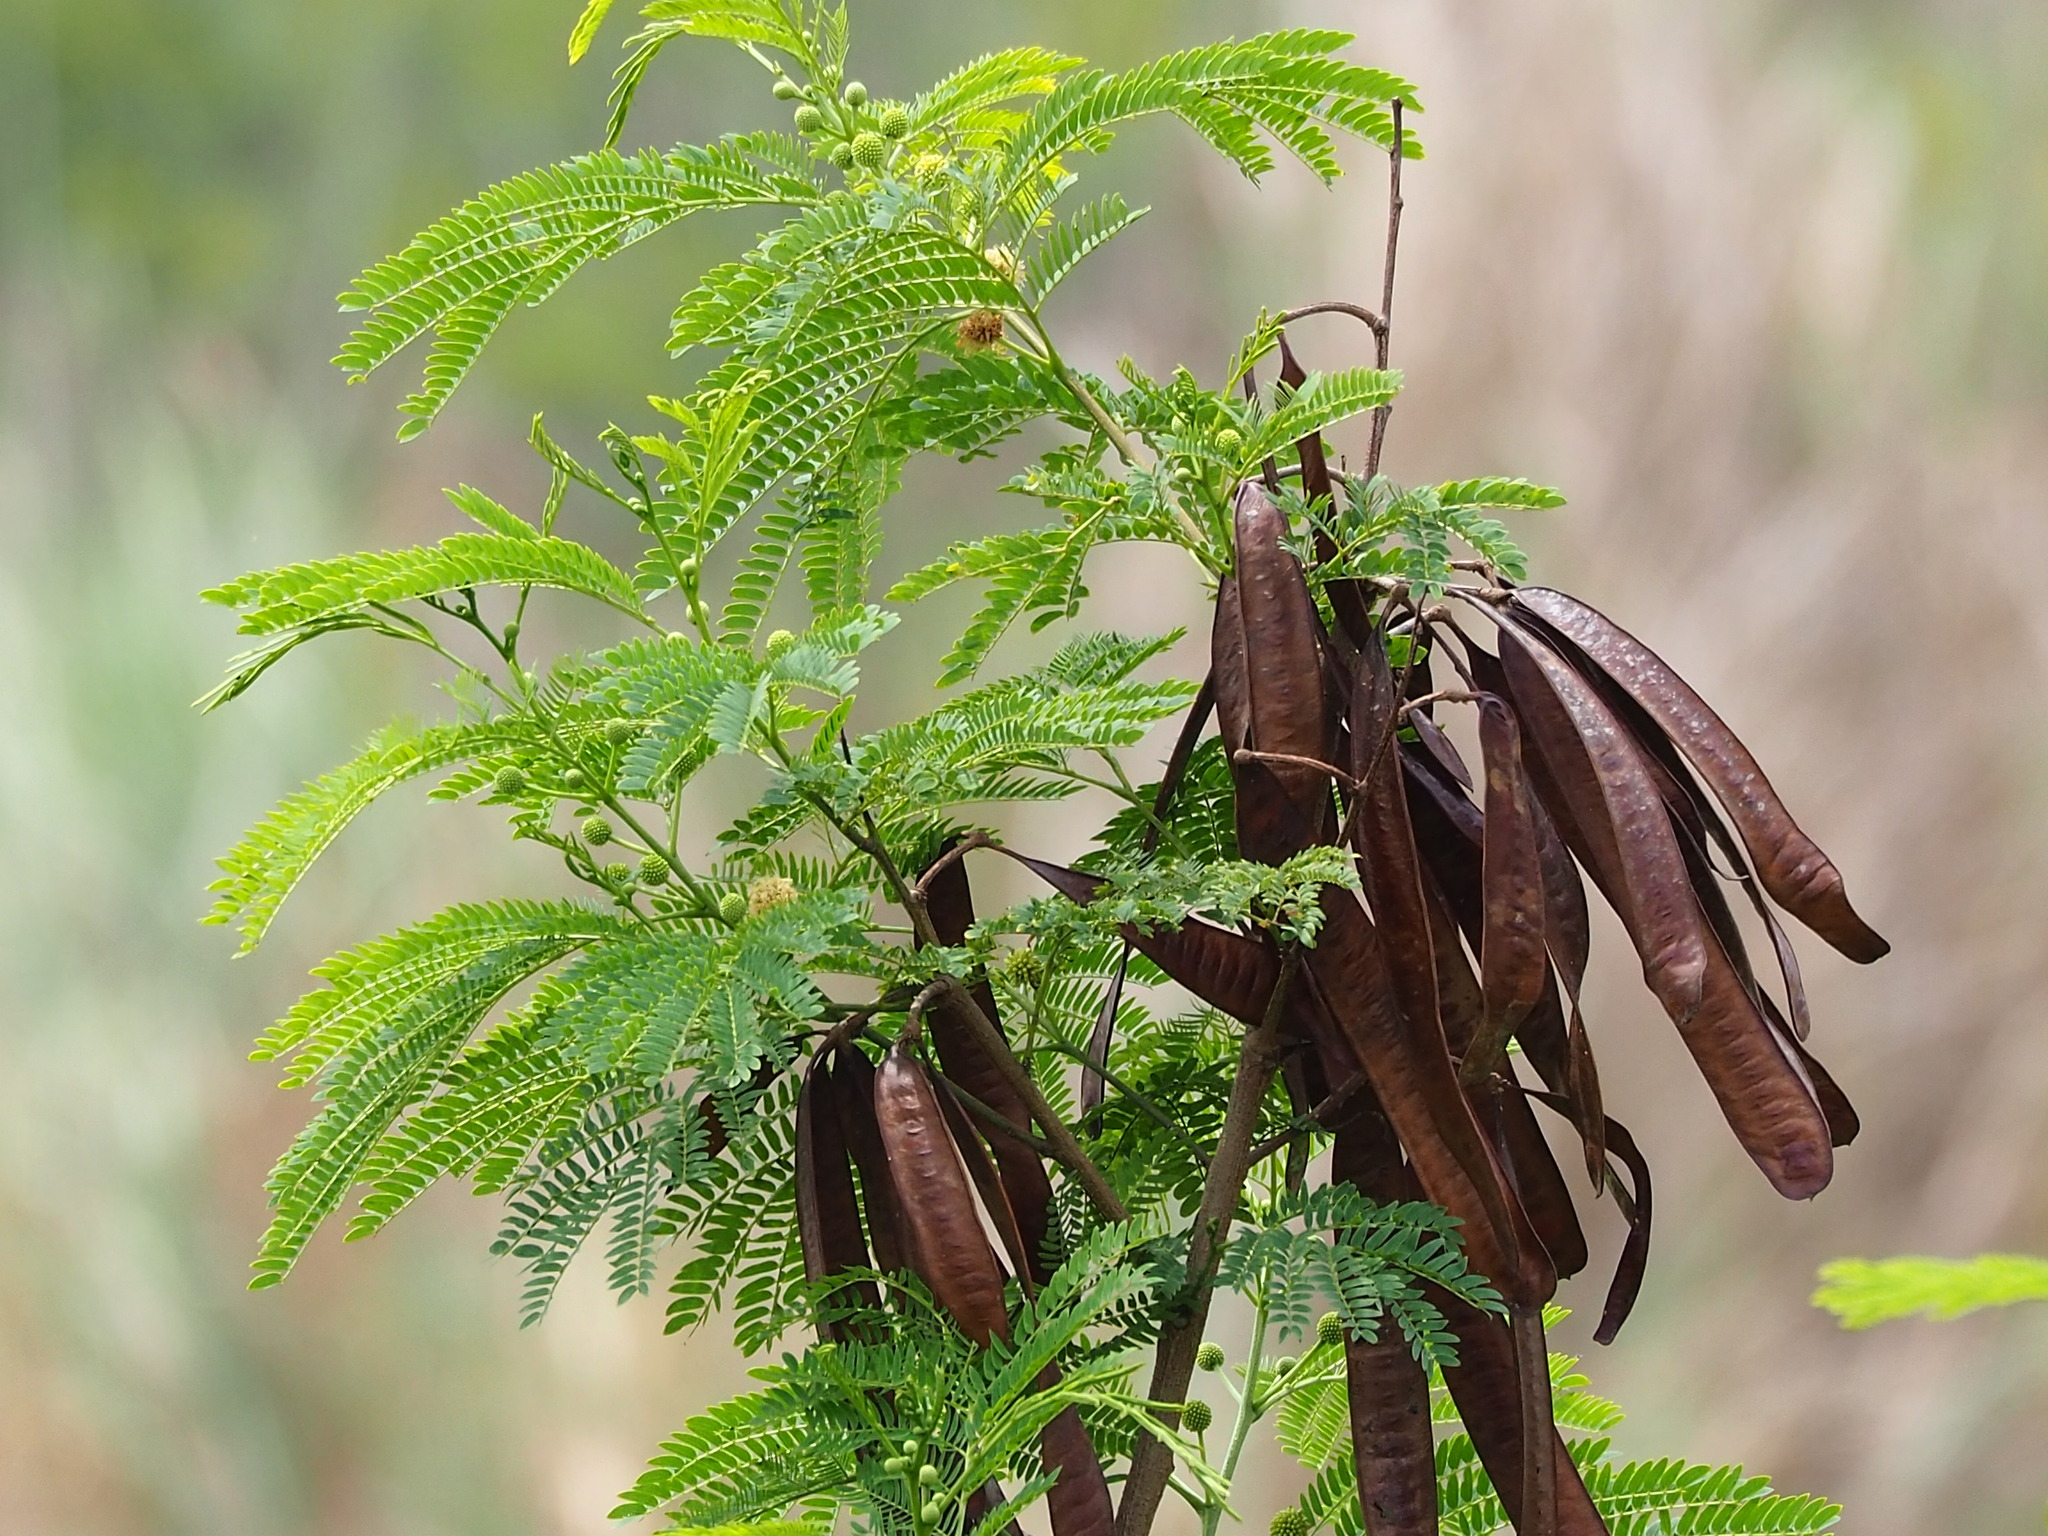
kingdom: Plantae
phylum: Tracheophyta
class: Magnoliopsida
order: Fabales
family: Fabaceae
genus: Leucaena
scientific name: Leucaena leucocephala
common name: White leadtree
